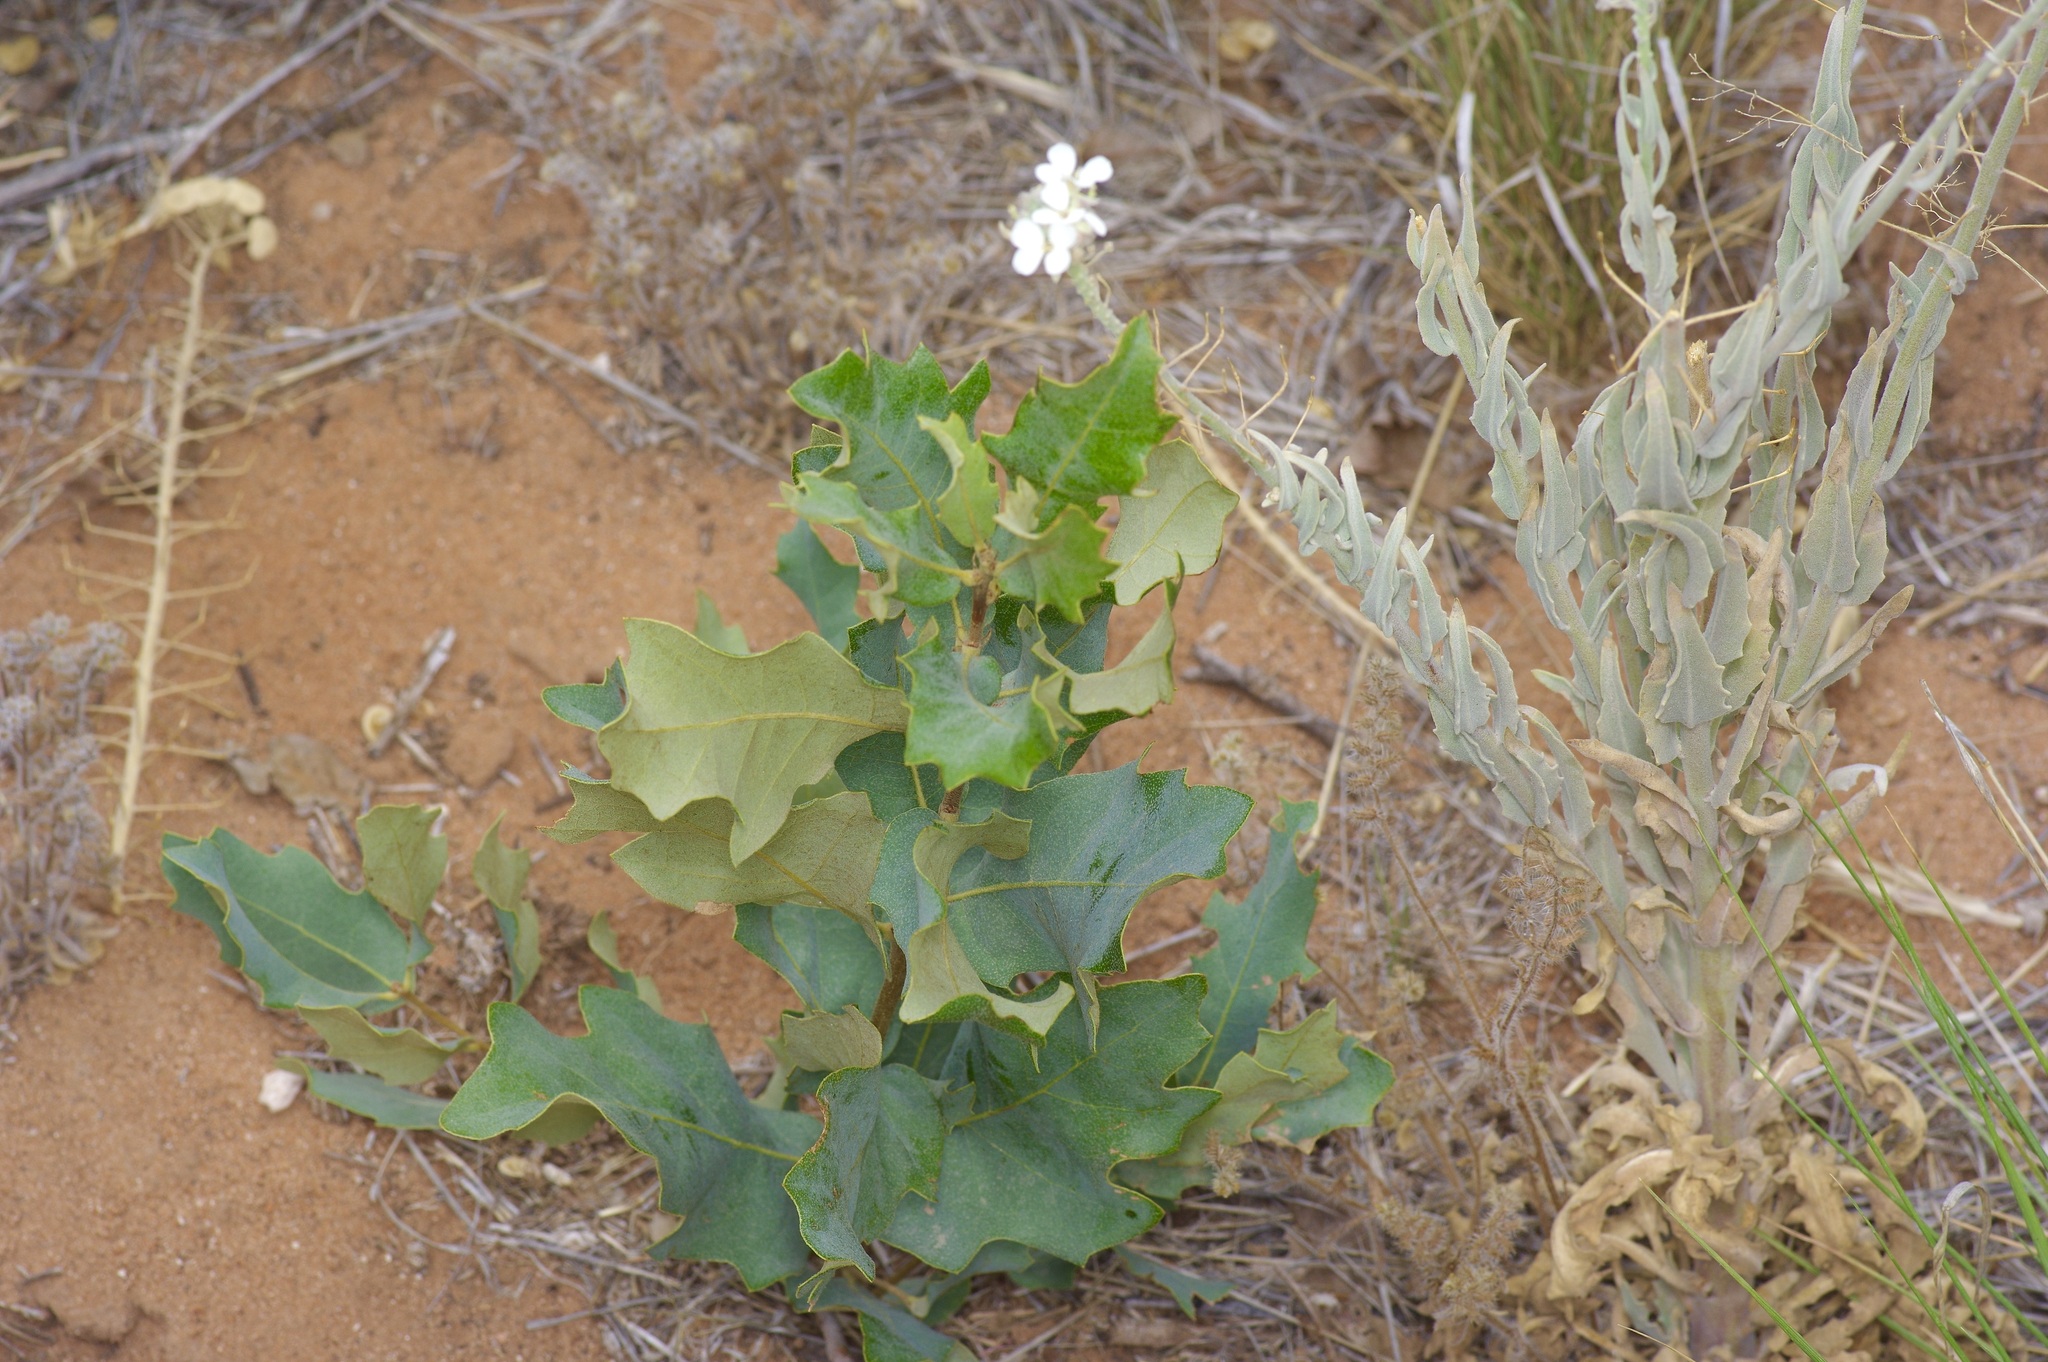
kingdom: Plantae
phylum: Tracheophyta
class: Magnoliopsida
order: Fagales
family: Fagaceae
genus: Quercus
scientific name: Quercus havardii
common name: Shinnery oak
